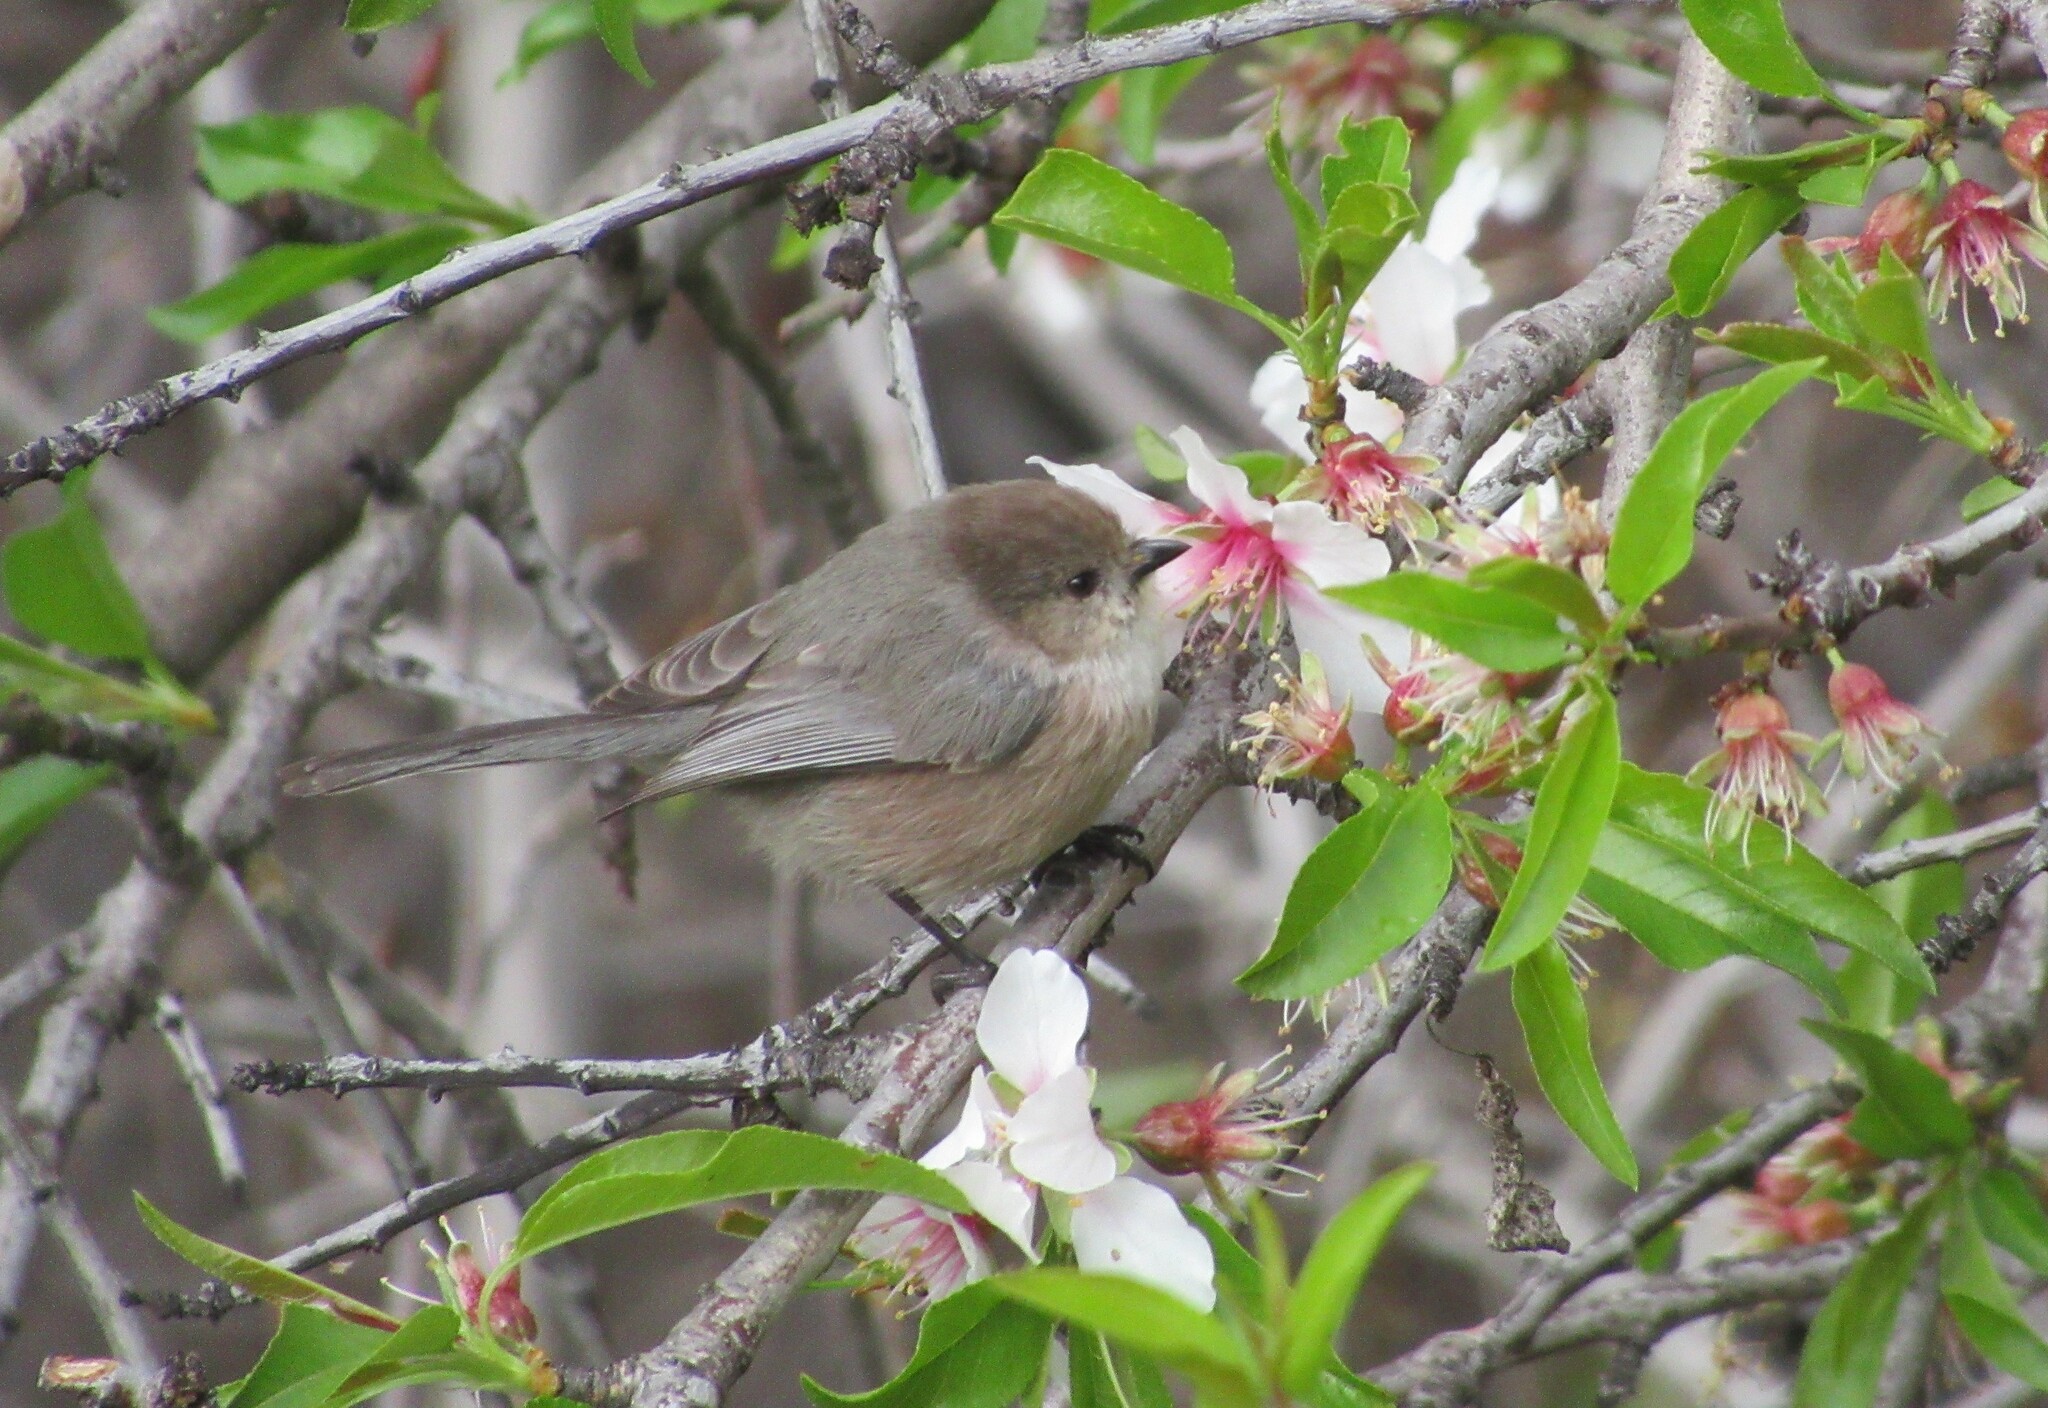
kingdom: Animalia
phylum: Chordata
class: Aves
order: Passeriformes
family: Aegithalidae
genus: Psaltriparus
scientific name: Psaltriparus minimus
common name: American bushtit
